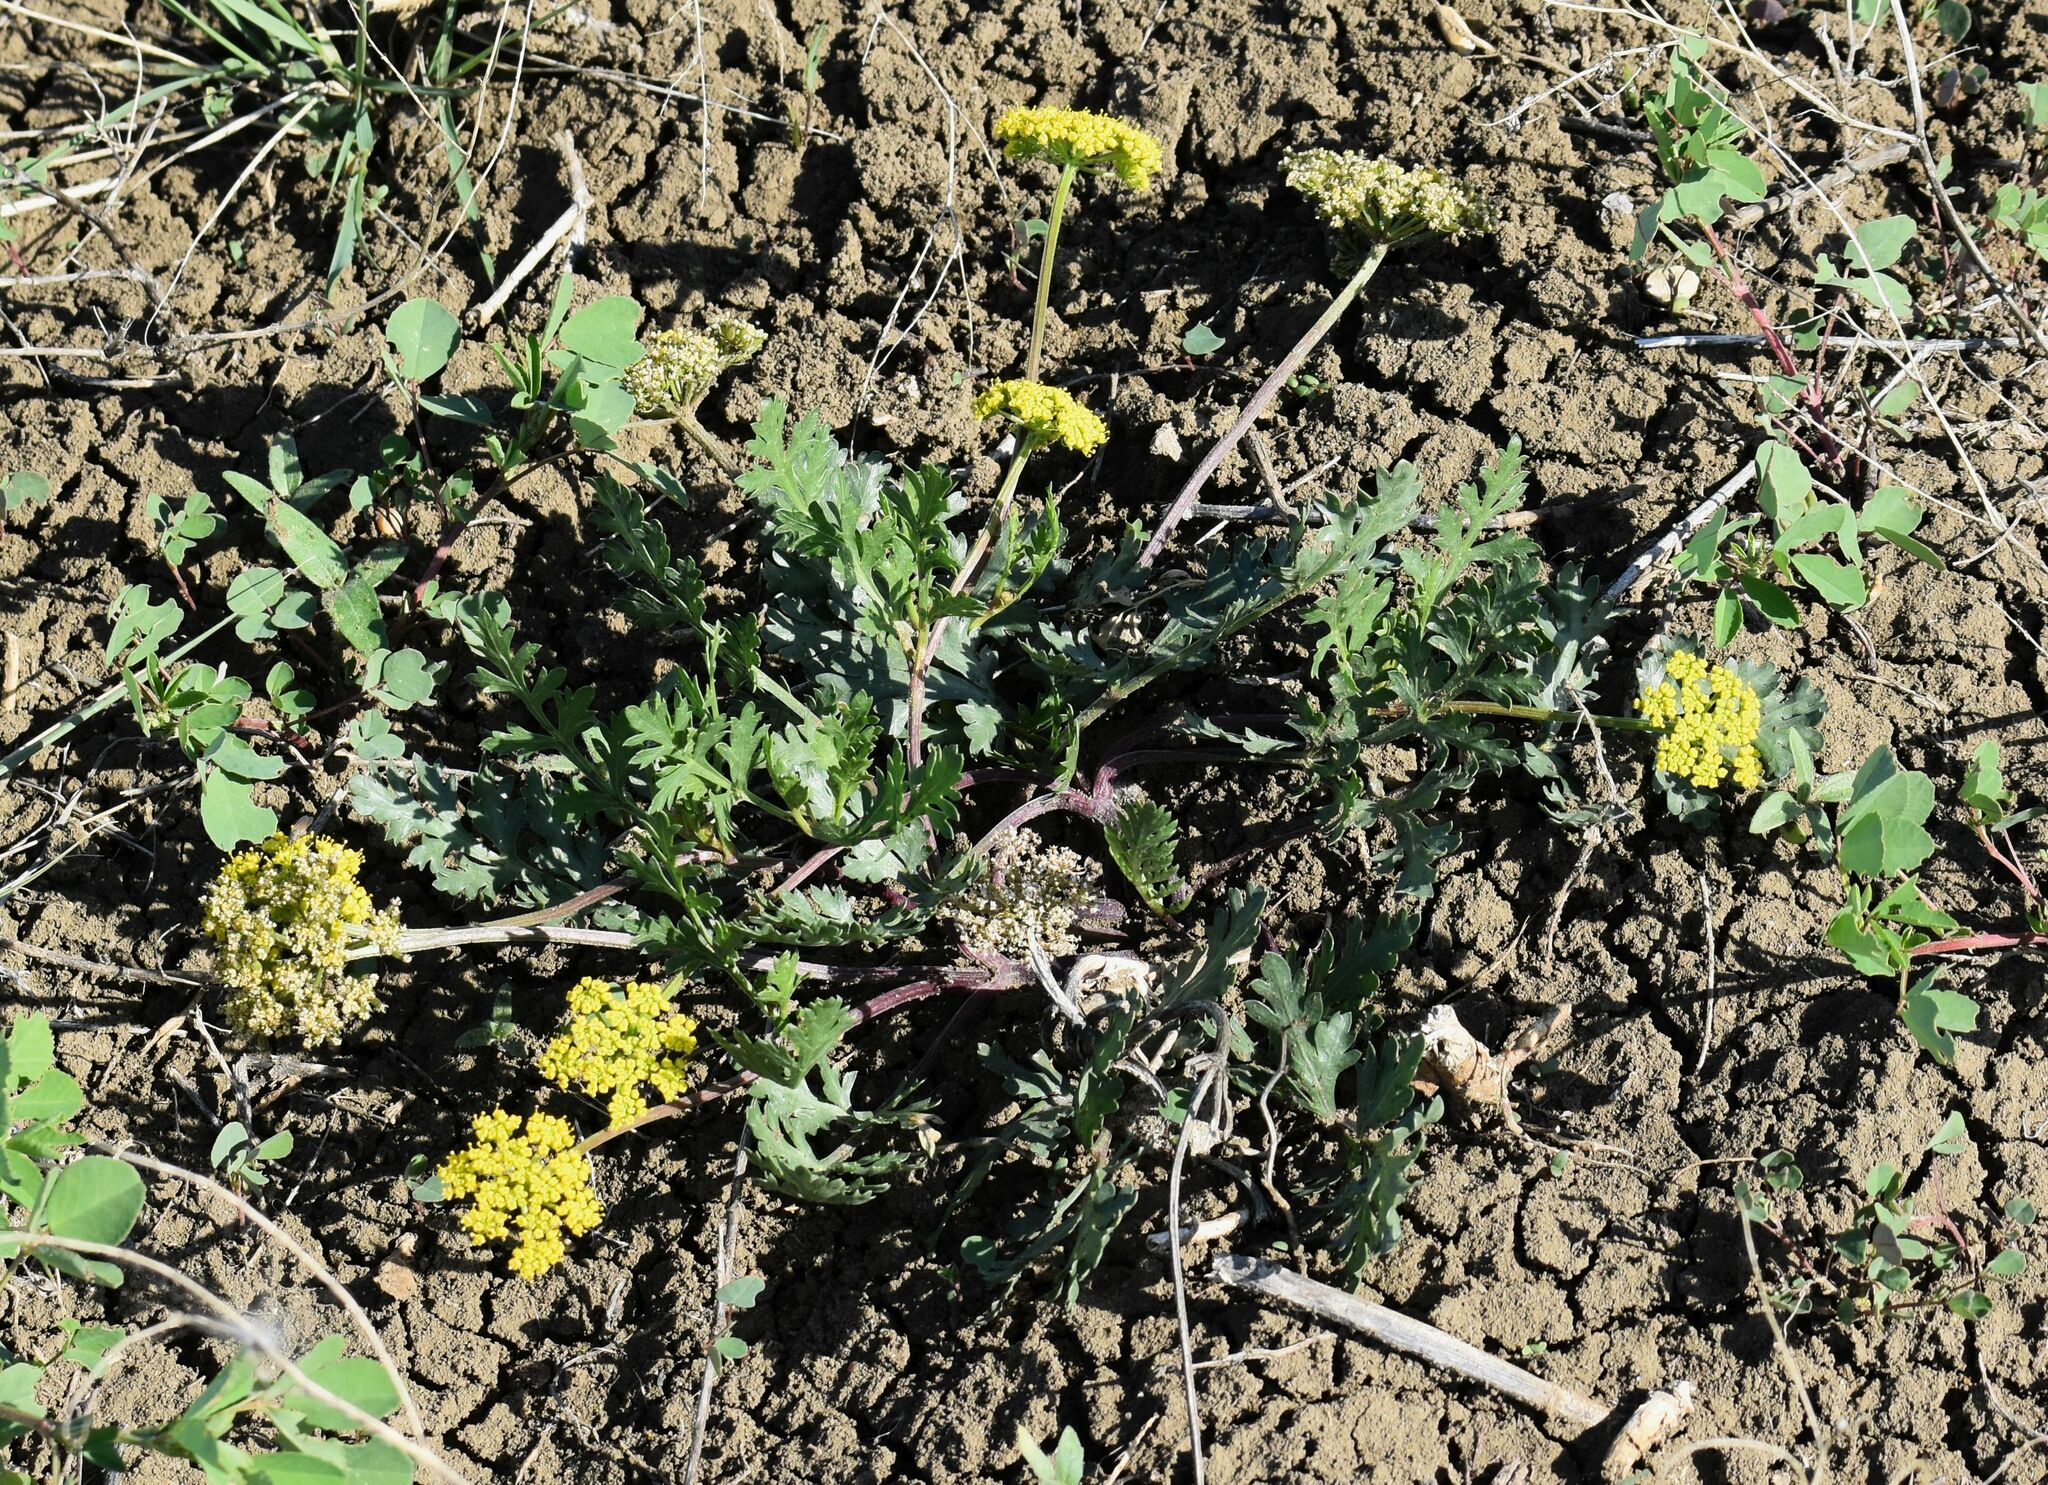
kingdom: Plantae
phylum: Tracheophyta
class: Magnoliopsida
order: Apiales
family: Apiaceae
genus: Lomatium
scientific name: Lomatium foeniculaceum
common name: Desert-parsley
